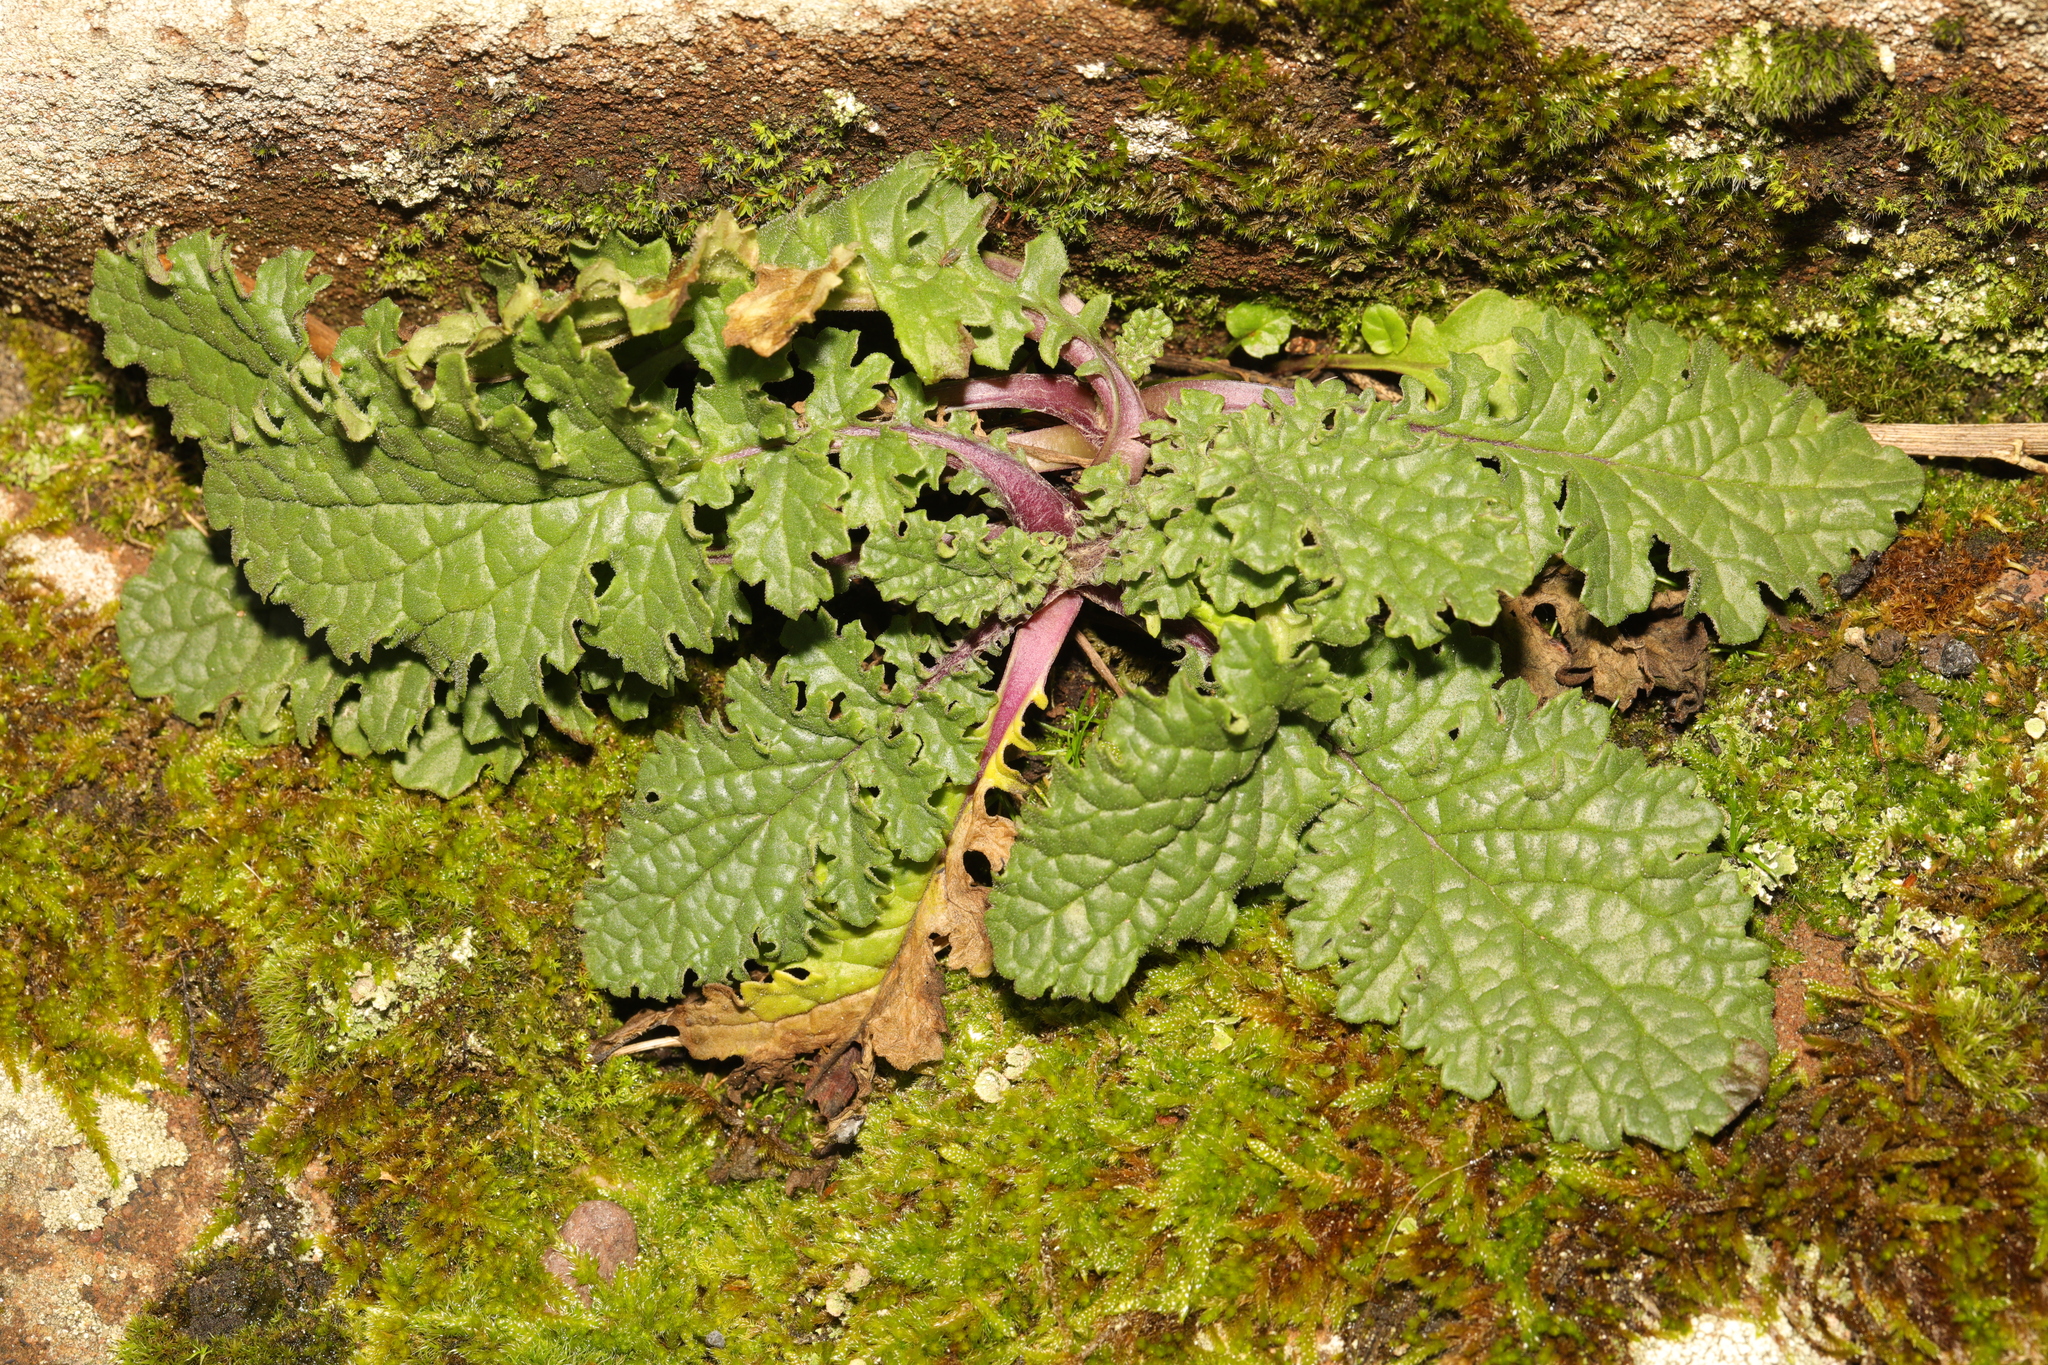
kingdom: Plantae
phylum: Tracheophyta
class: Magnoliopsida
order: Asterales
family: Asteraceae
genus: Jacobaea
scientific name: Jacobaea vulgaris
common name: Stinking willie
